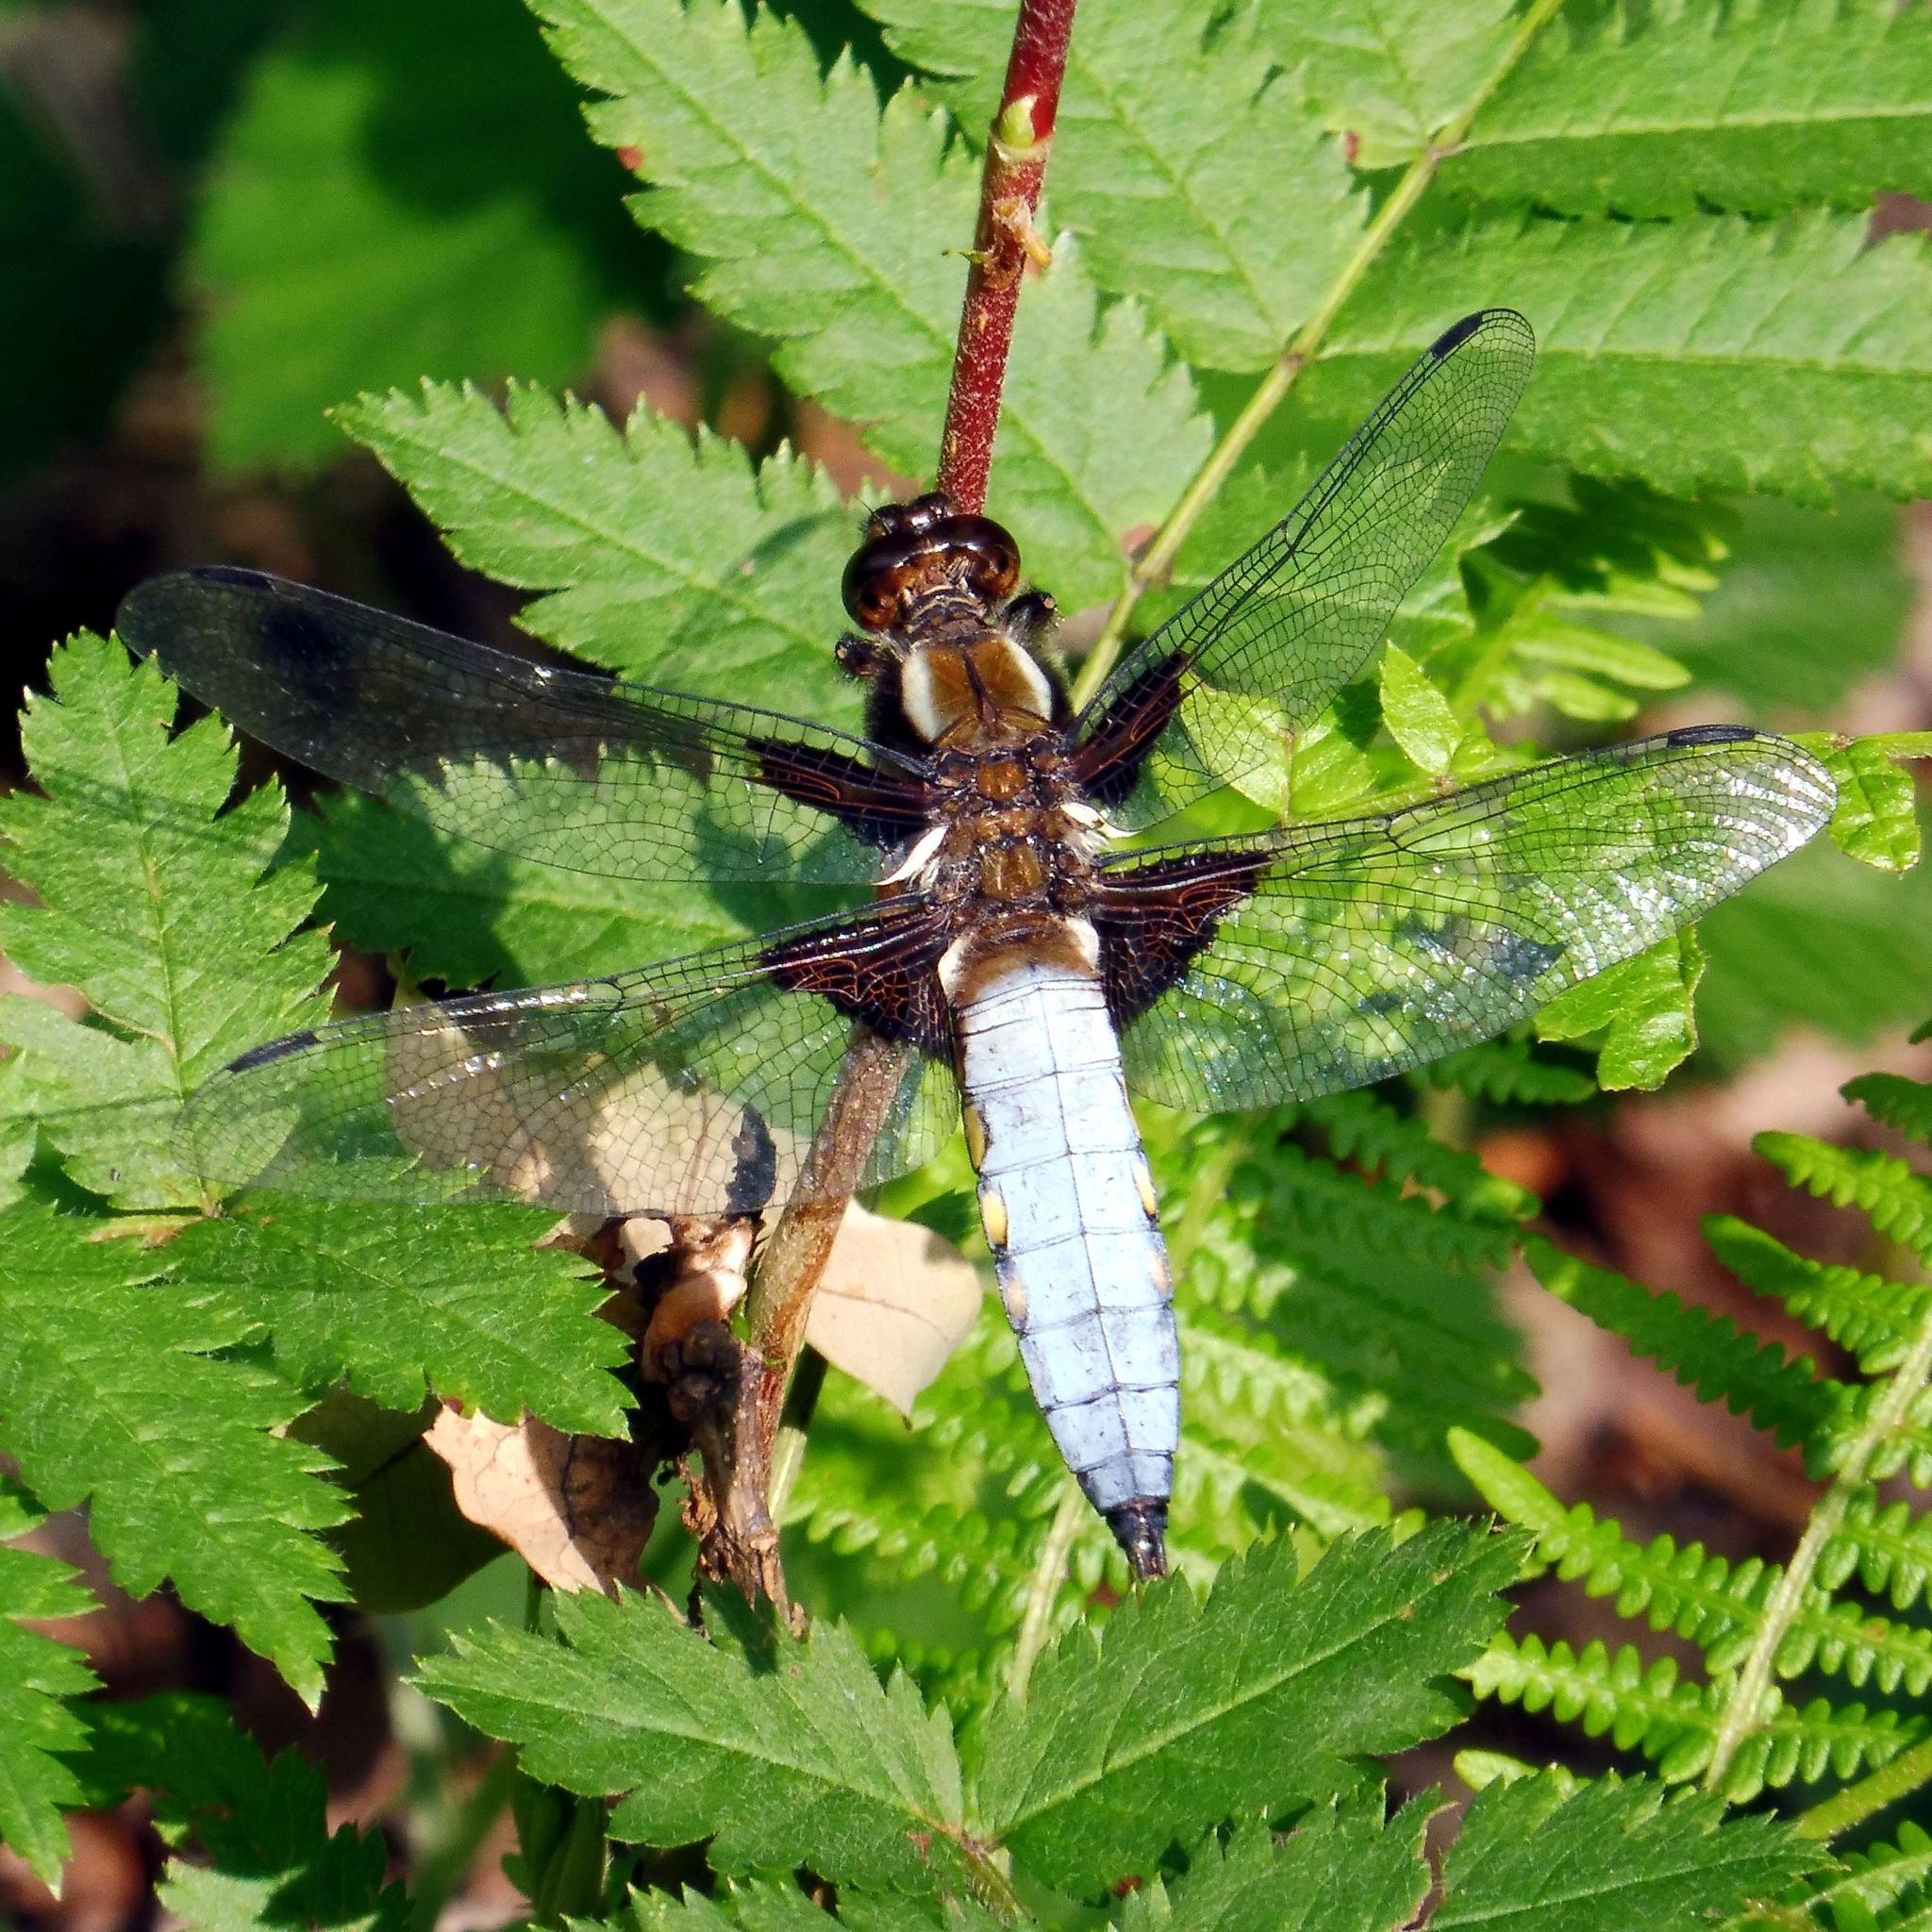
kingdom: Animalia
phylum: Arthropoda
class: Insecta
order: Odonata
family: Libellulidae
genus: Libellula
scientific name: Libellula depressa
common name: Broad-bodied chaser
